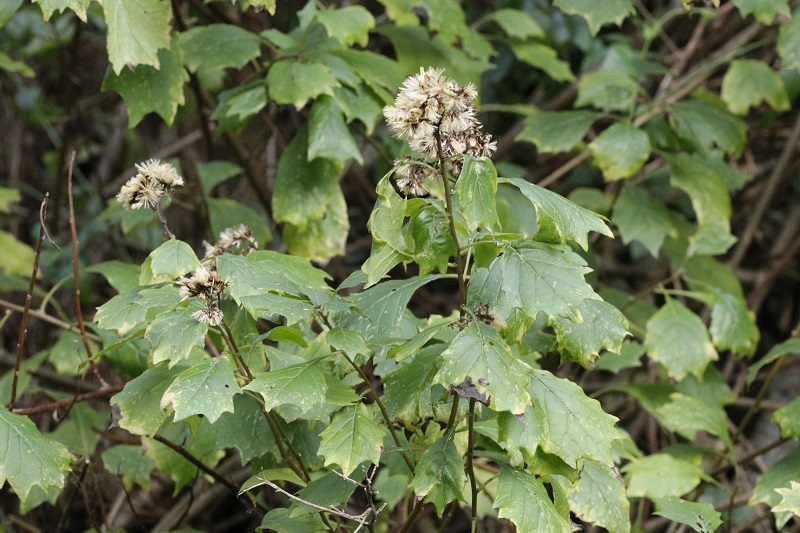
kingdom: Plantae
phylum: Tracheophyta
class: Magnoliopsida
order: Asterales
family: Asteraceae
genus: Gymnanthemum
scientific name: Gymnanthemum capense
